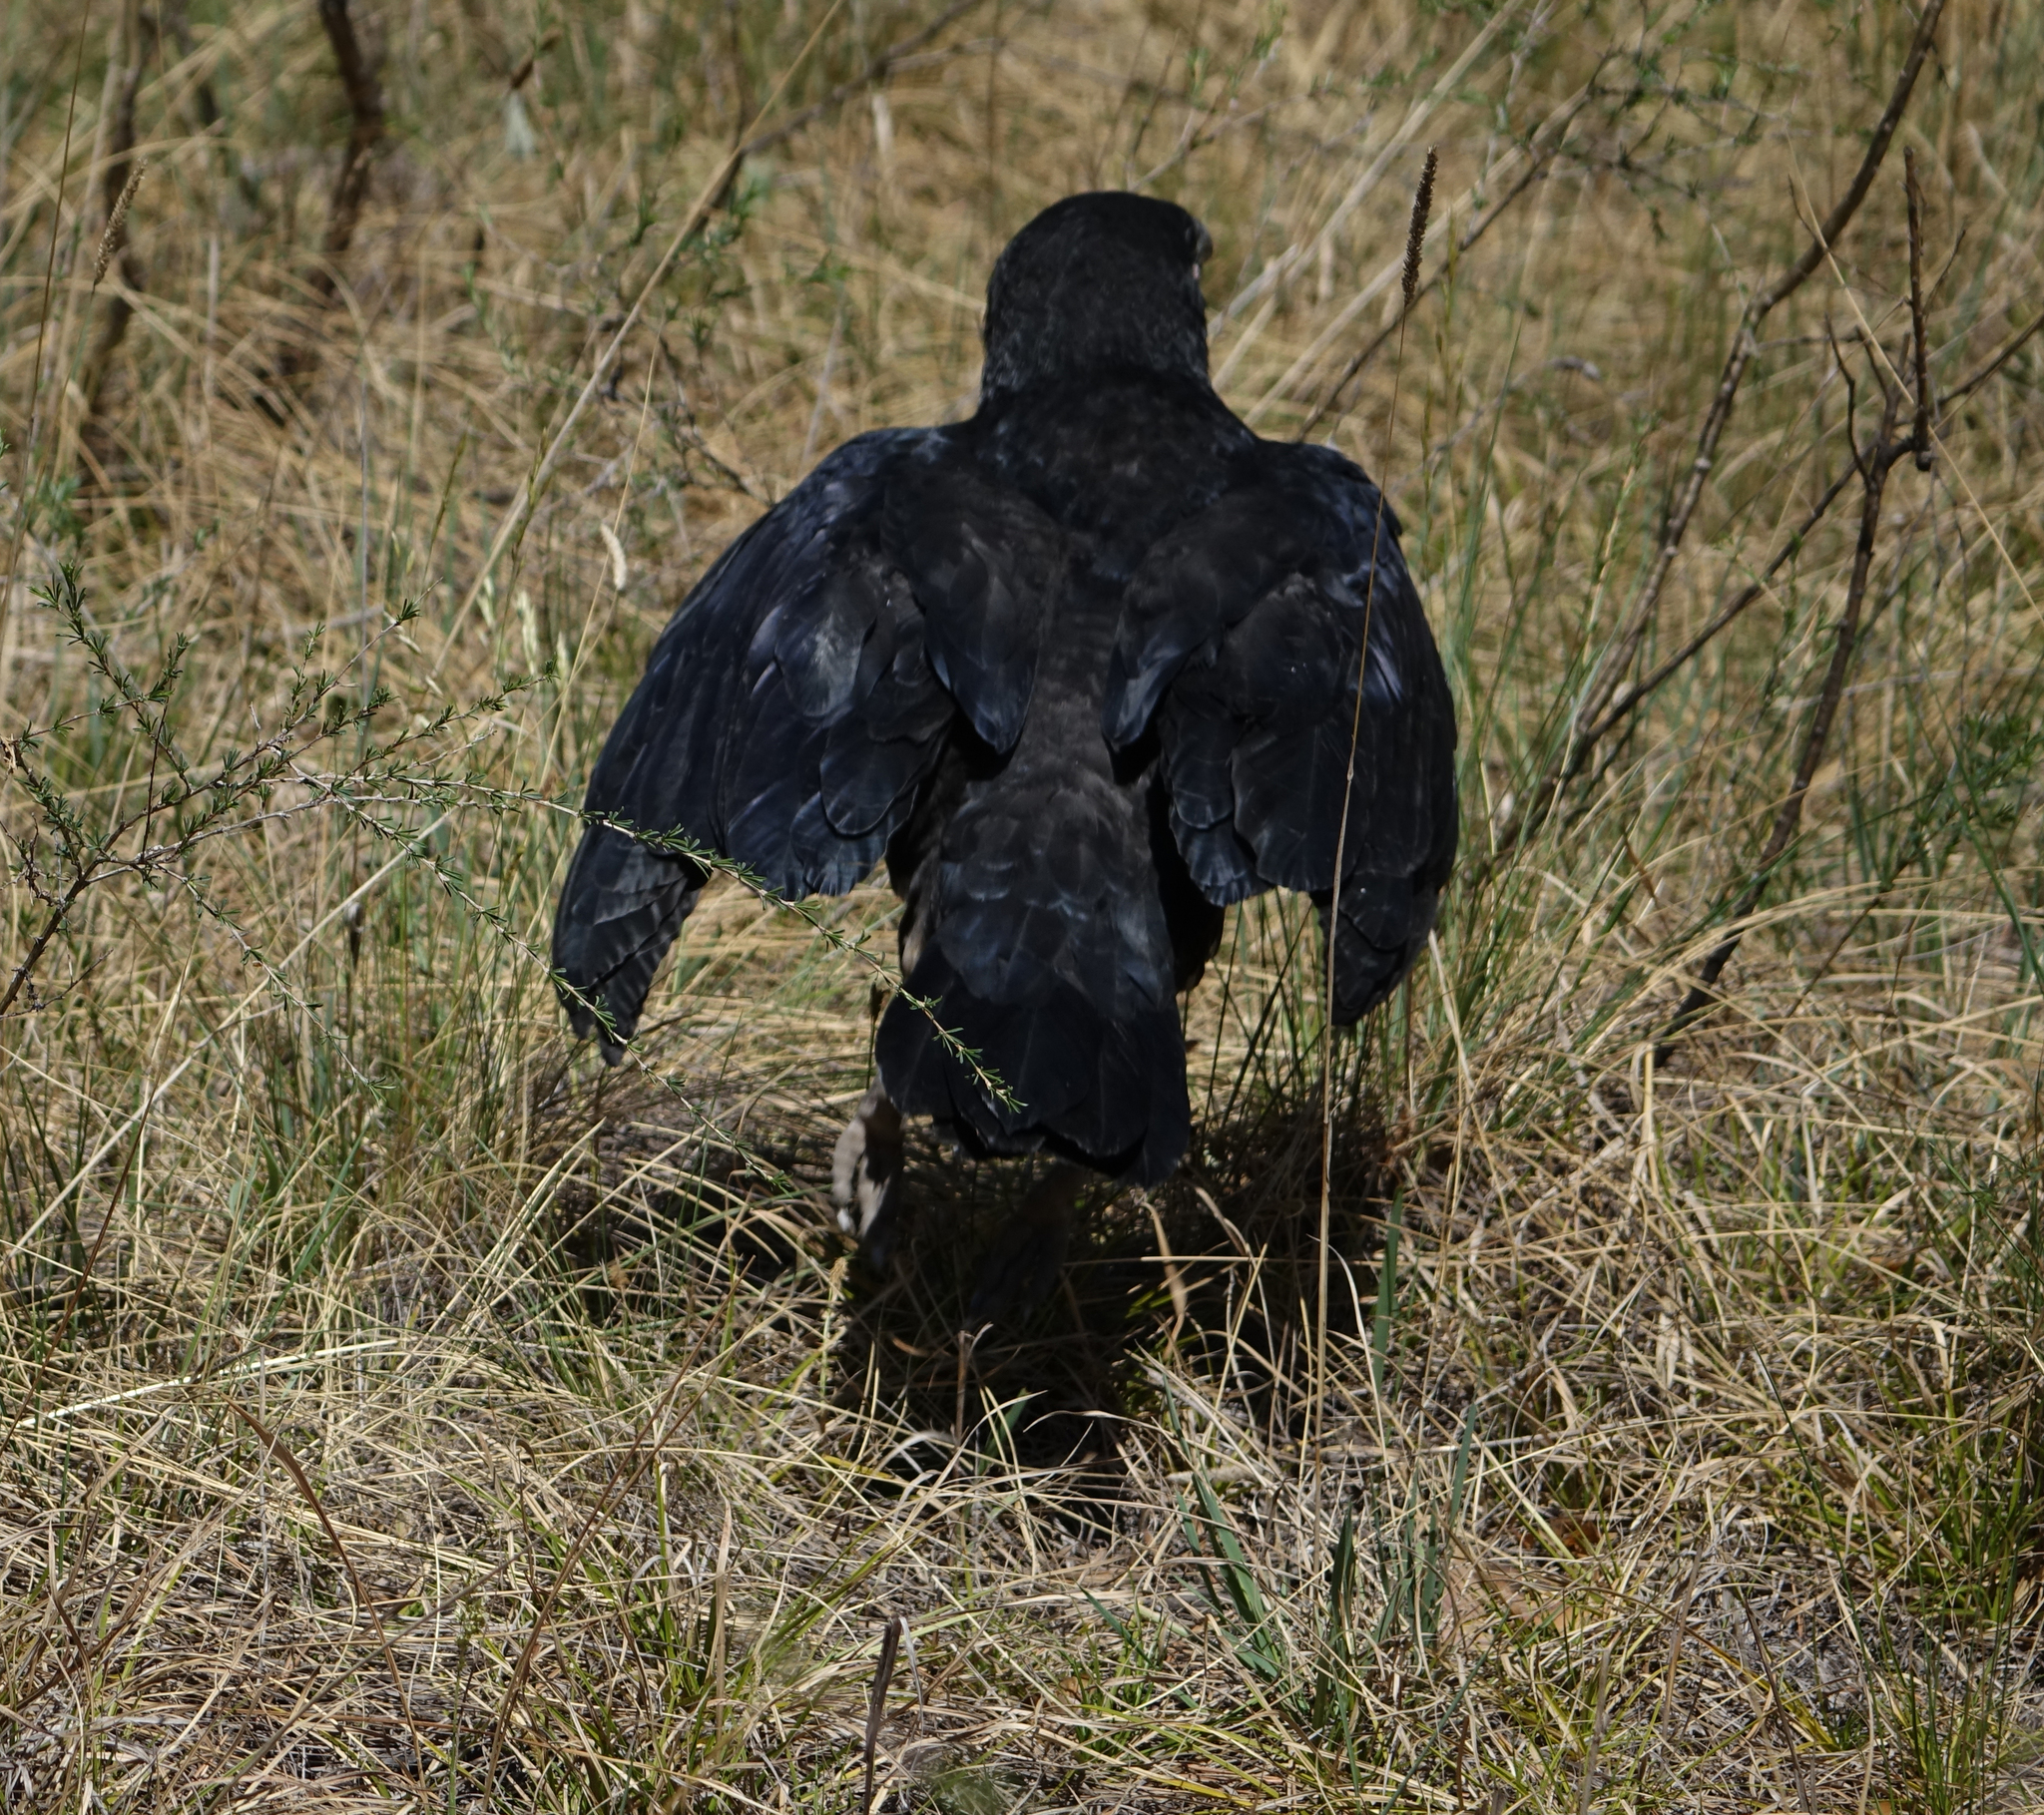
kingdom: Animalia
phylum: Chordata
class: Aves
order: Passeriformes
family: Corvidae
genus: Corvus
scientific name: Corvus corax
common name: Common raven
